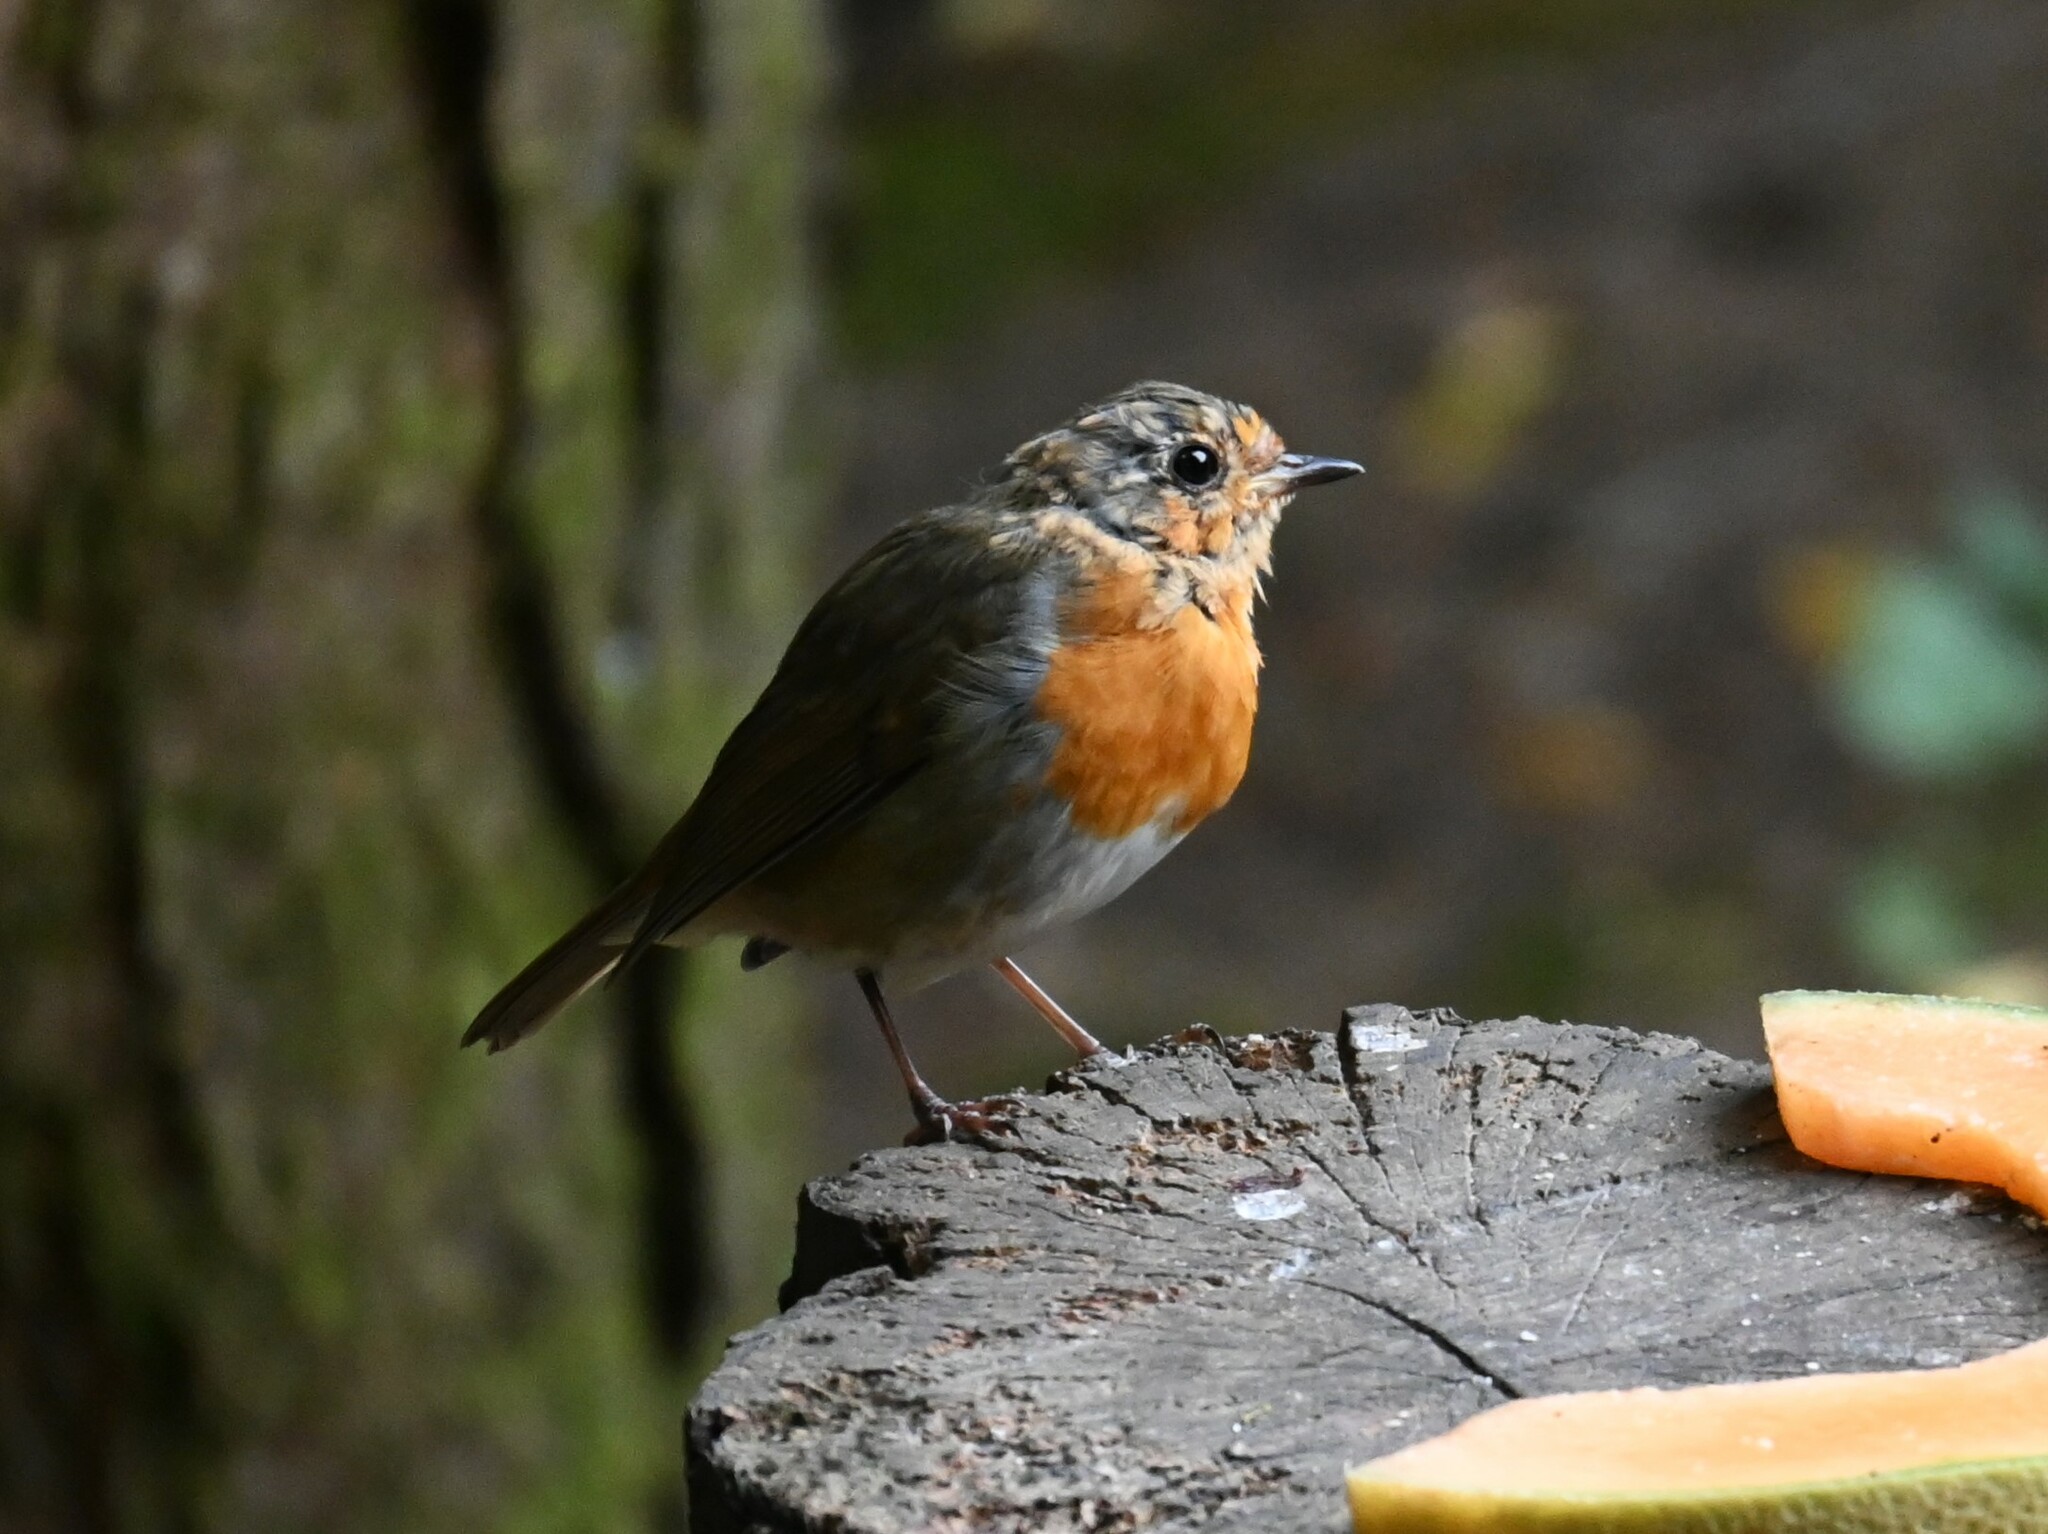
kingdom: Animalia
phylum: Chordata
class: Aves
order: Passeriformes
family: Muscicapidae
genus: Erithacus
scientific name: Erithacus rubecula
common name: European robin
